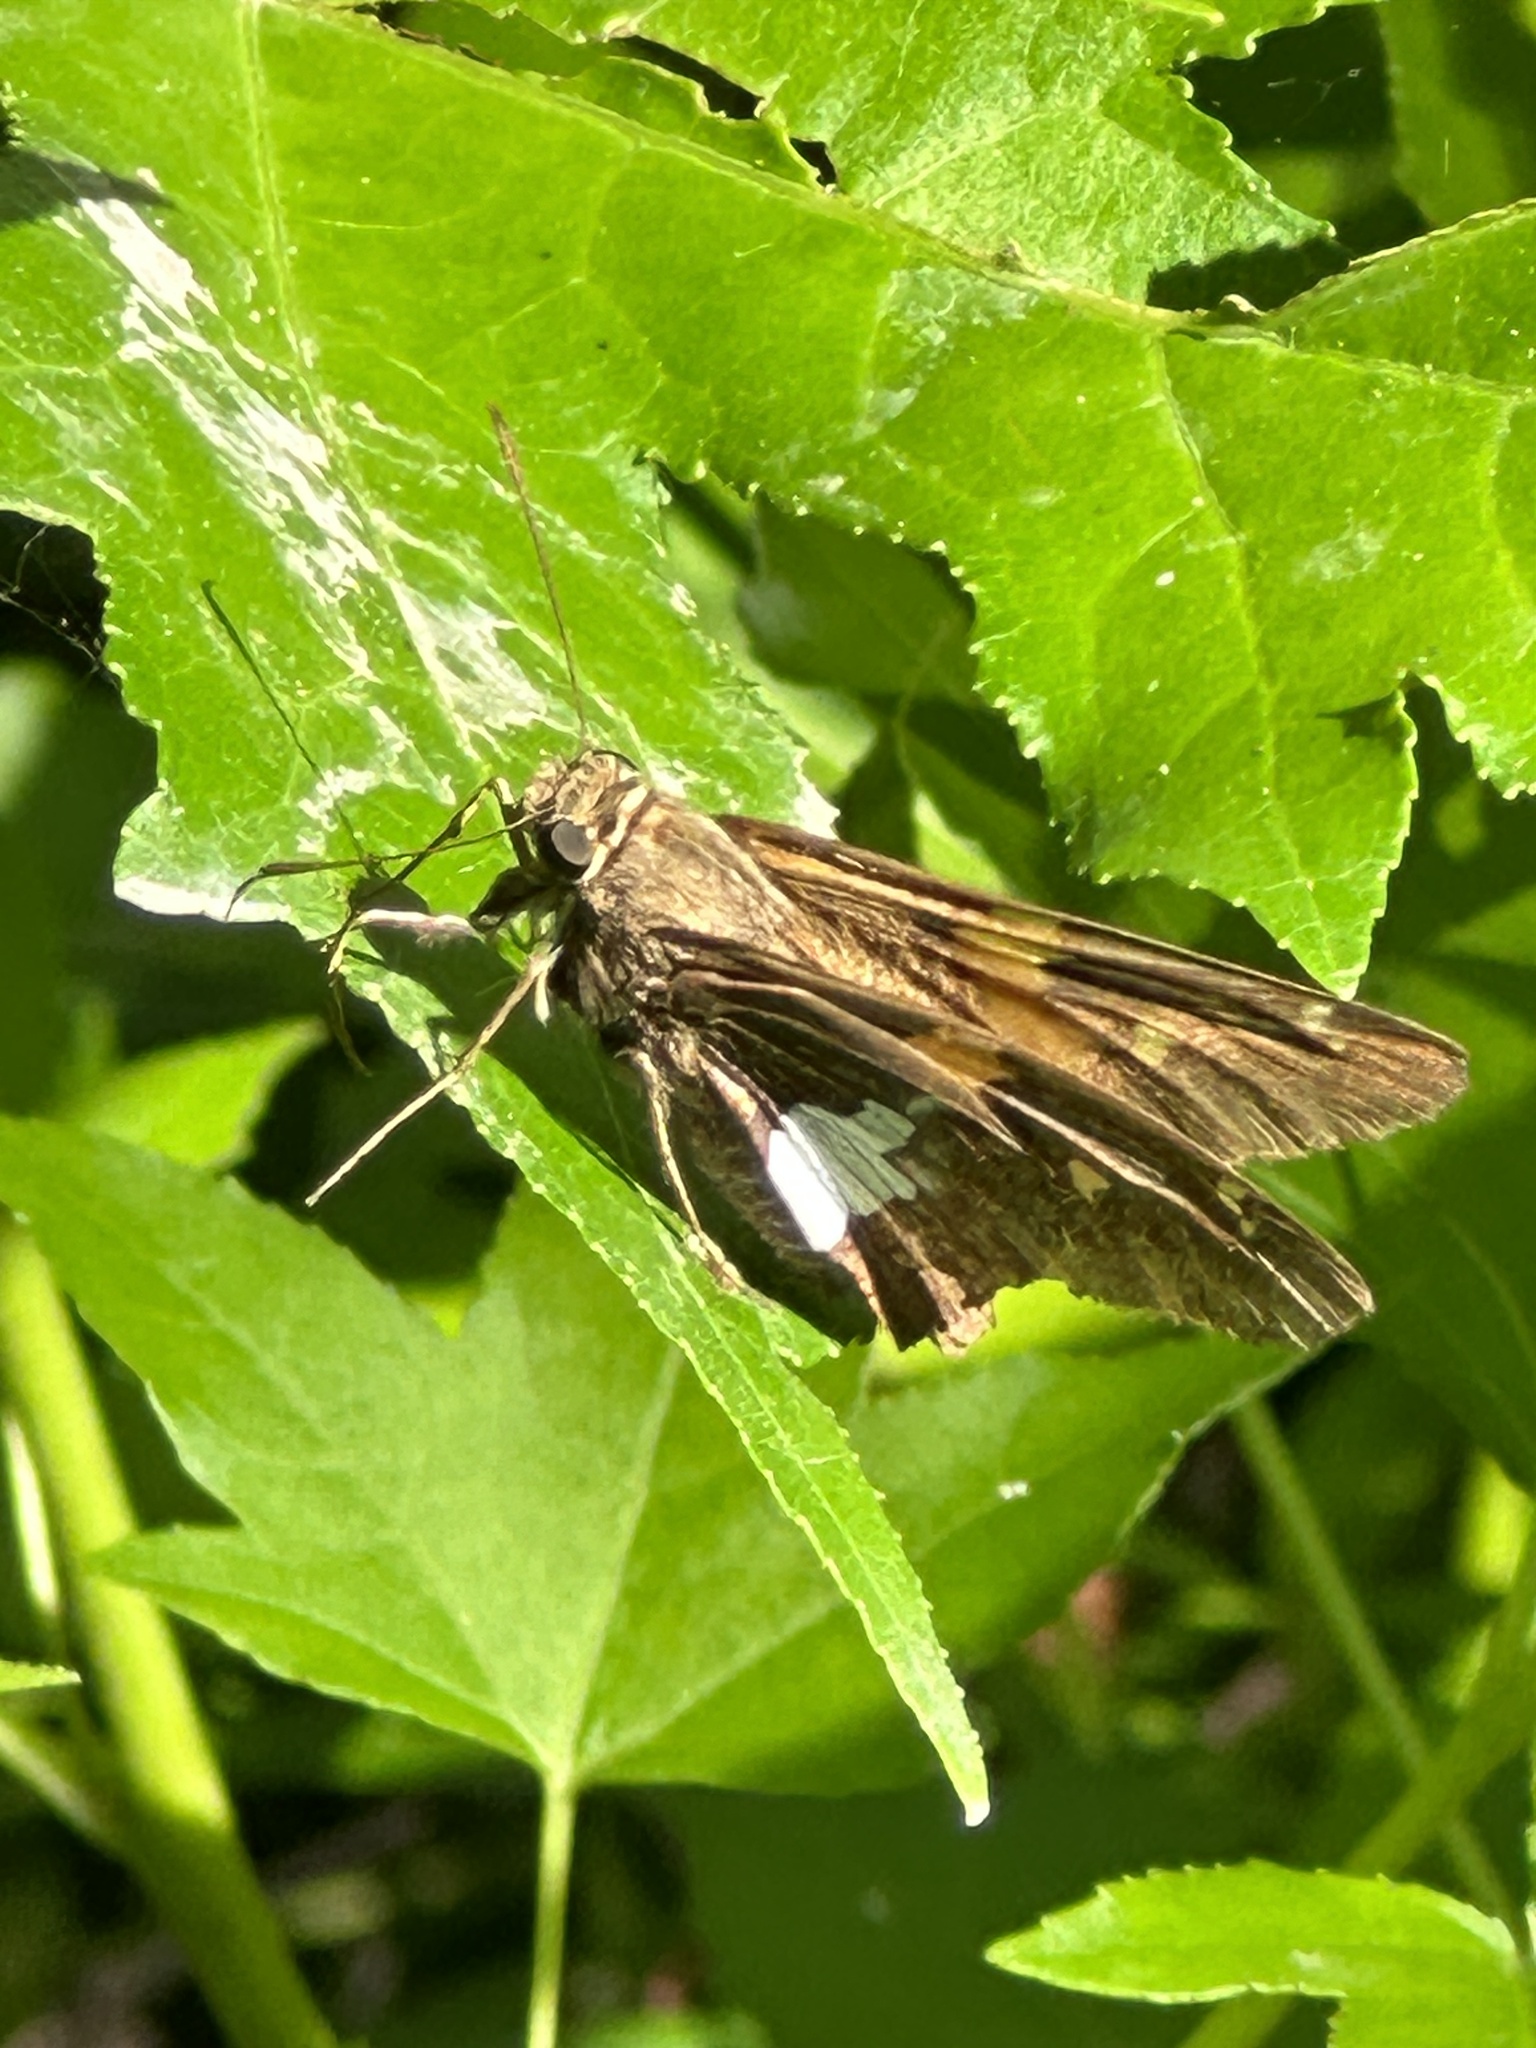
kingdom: Animalia
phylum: Arthropoda
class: Insecta
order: Lepidoptera
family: Hesperiidae
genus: Epargyreus
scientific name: Epargyreus clarus
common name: Silver-spotted skipper
